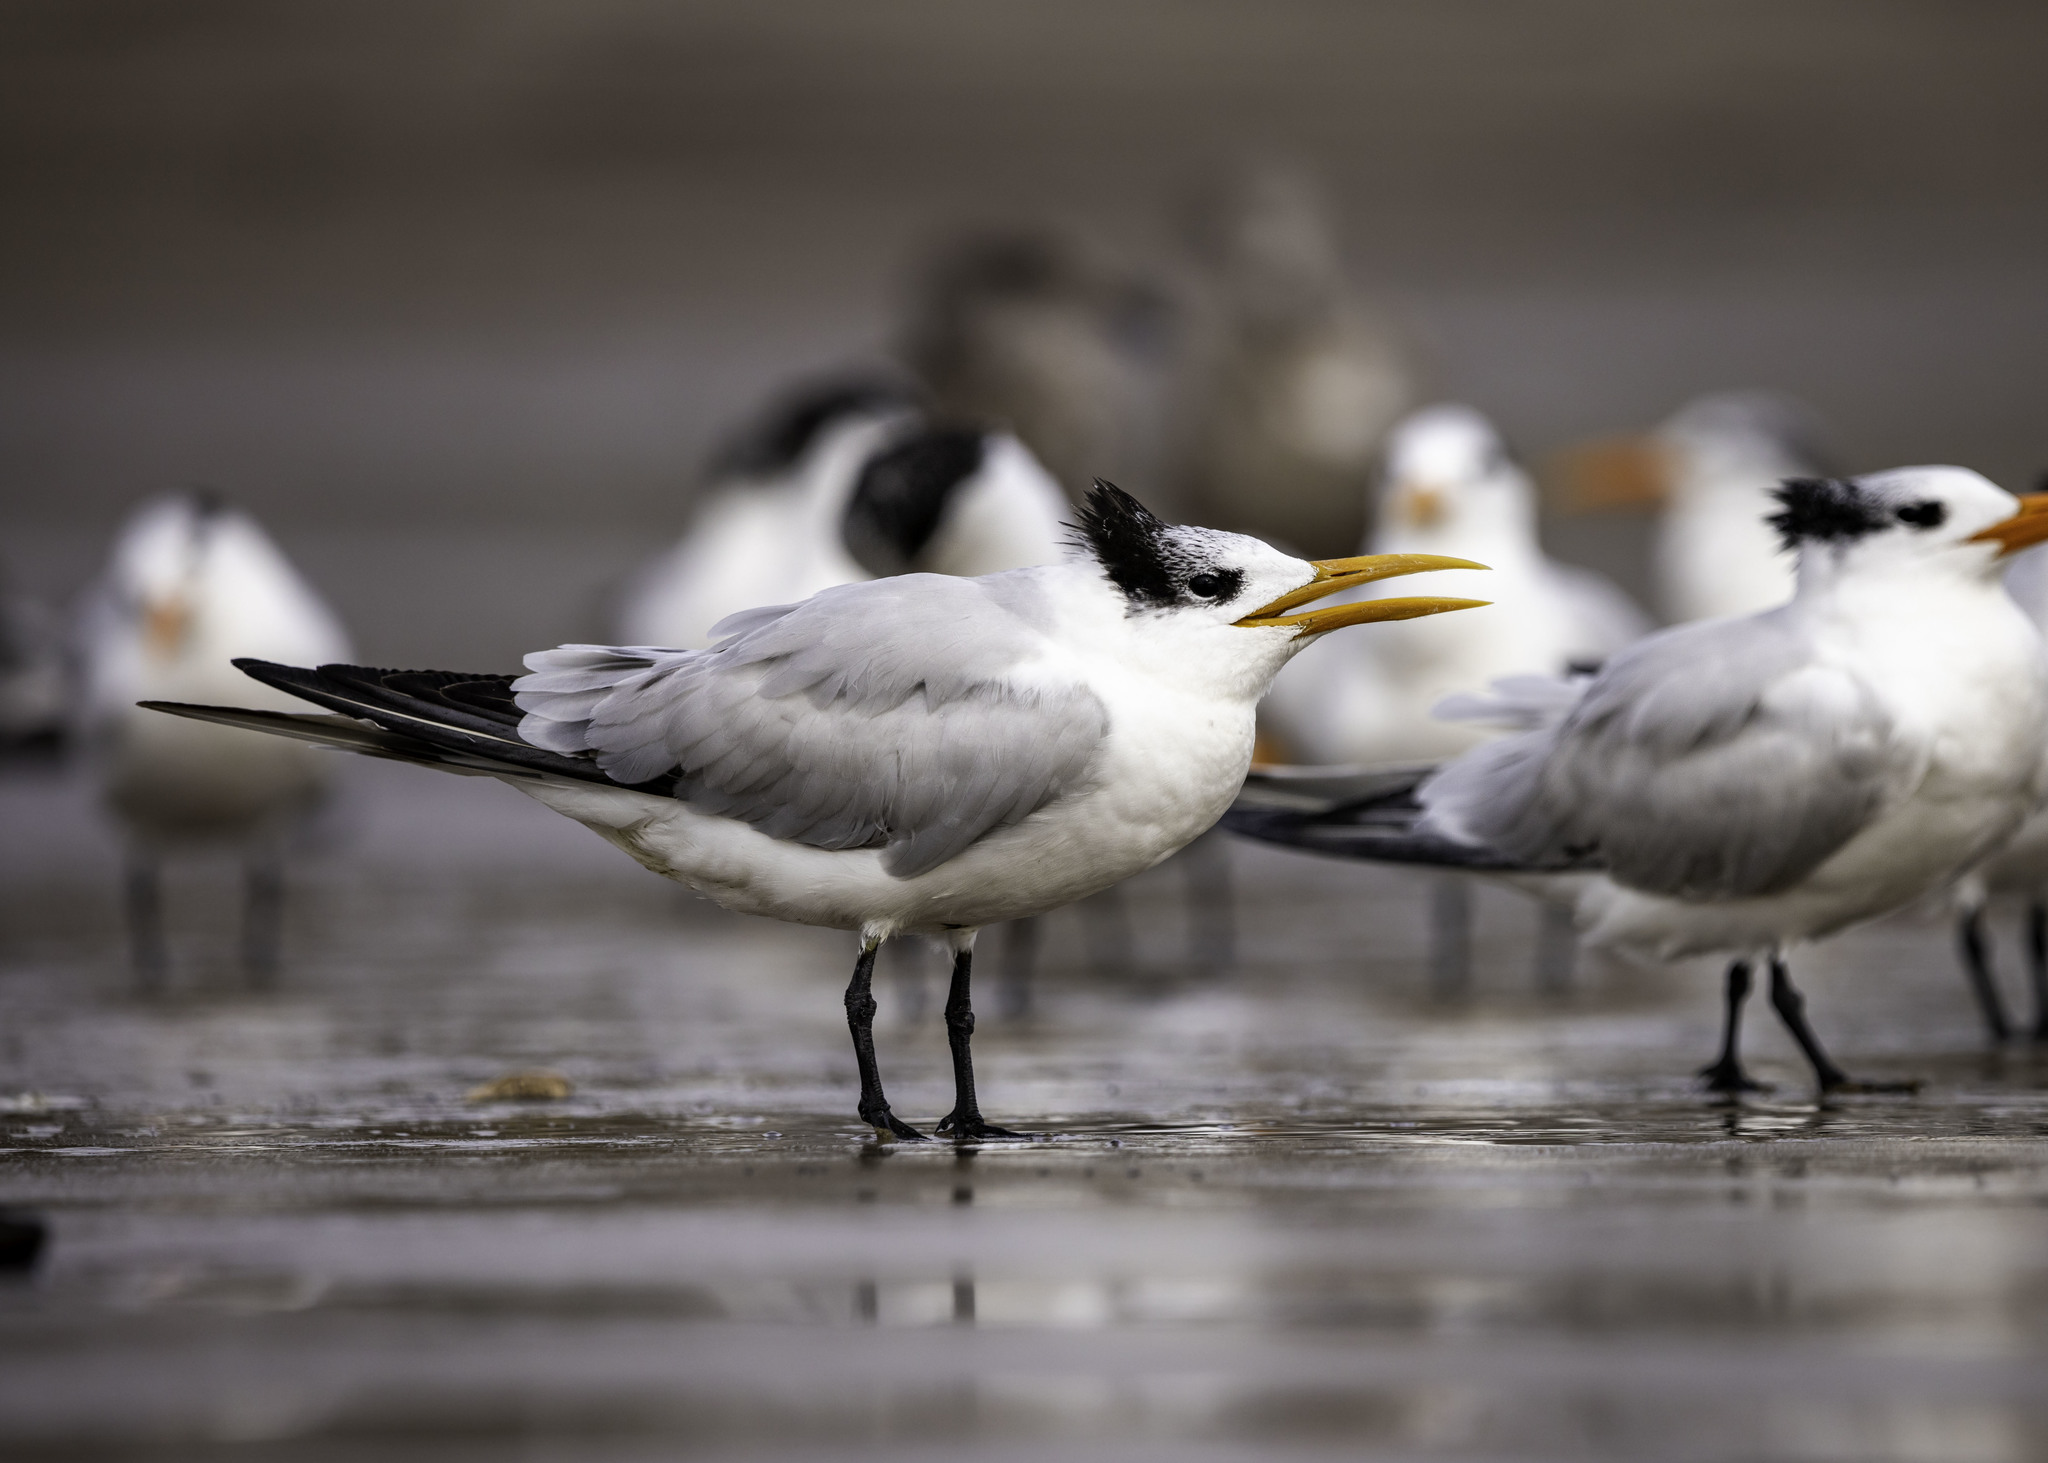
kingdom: Animalia
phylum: Chordata
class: Aves
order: Charadriiformes
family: Laridae
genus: Thalasseus
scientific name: Thalasseus maximus
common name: Royal tern
